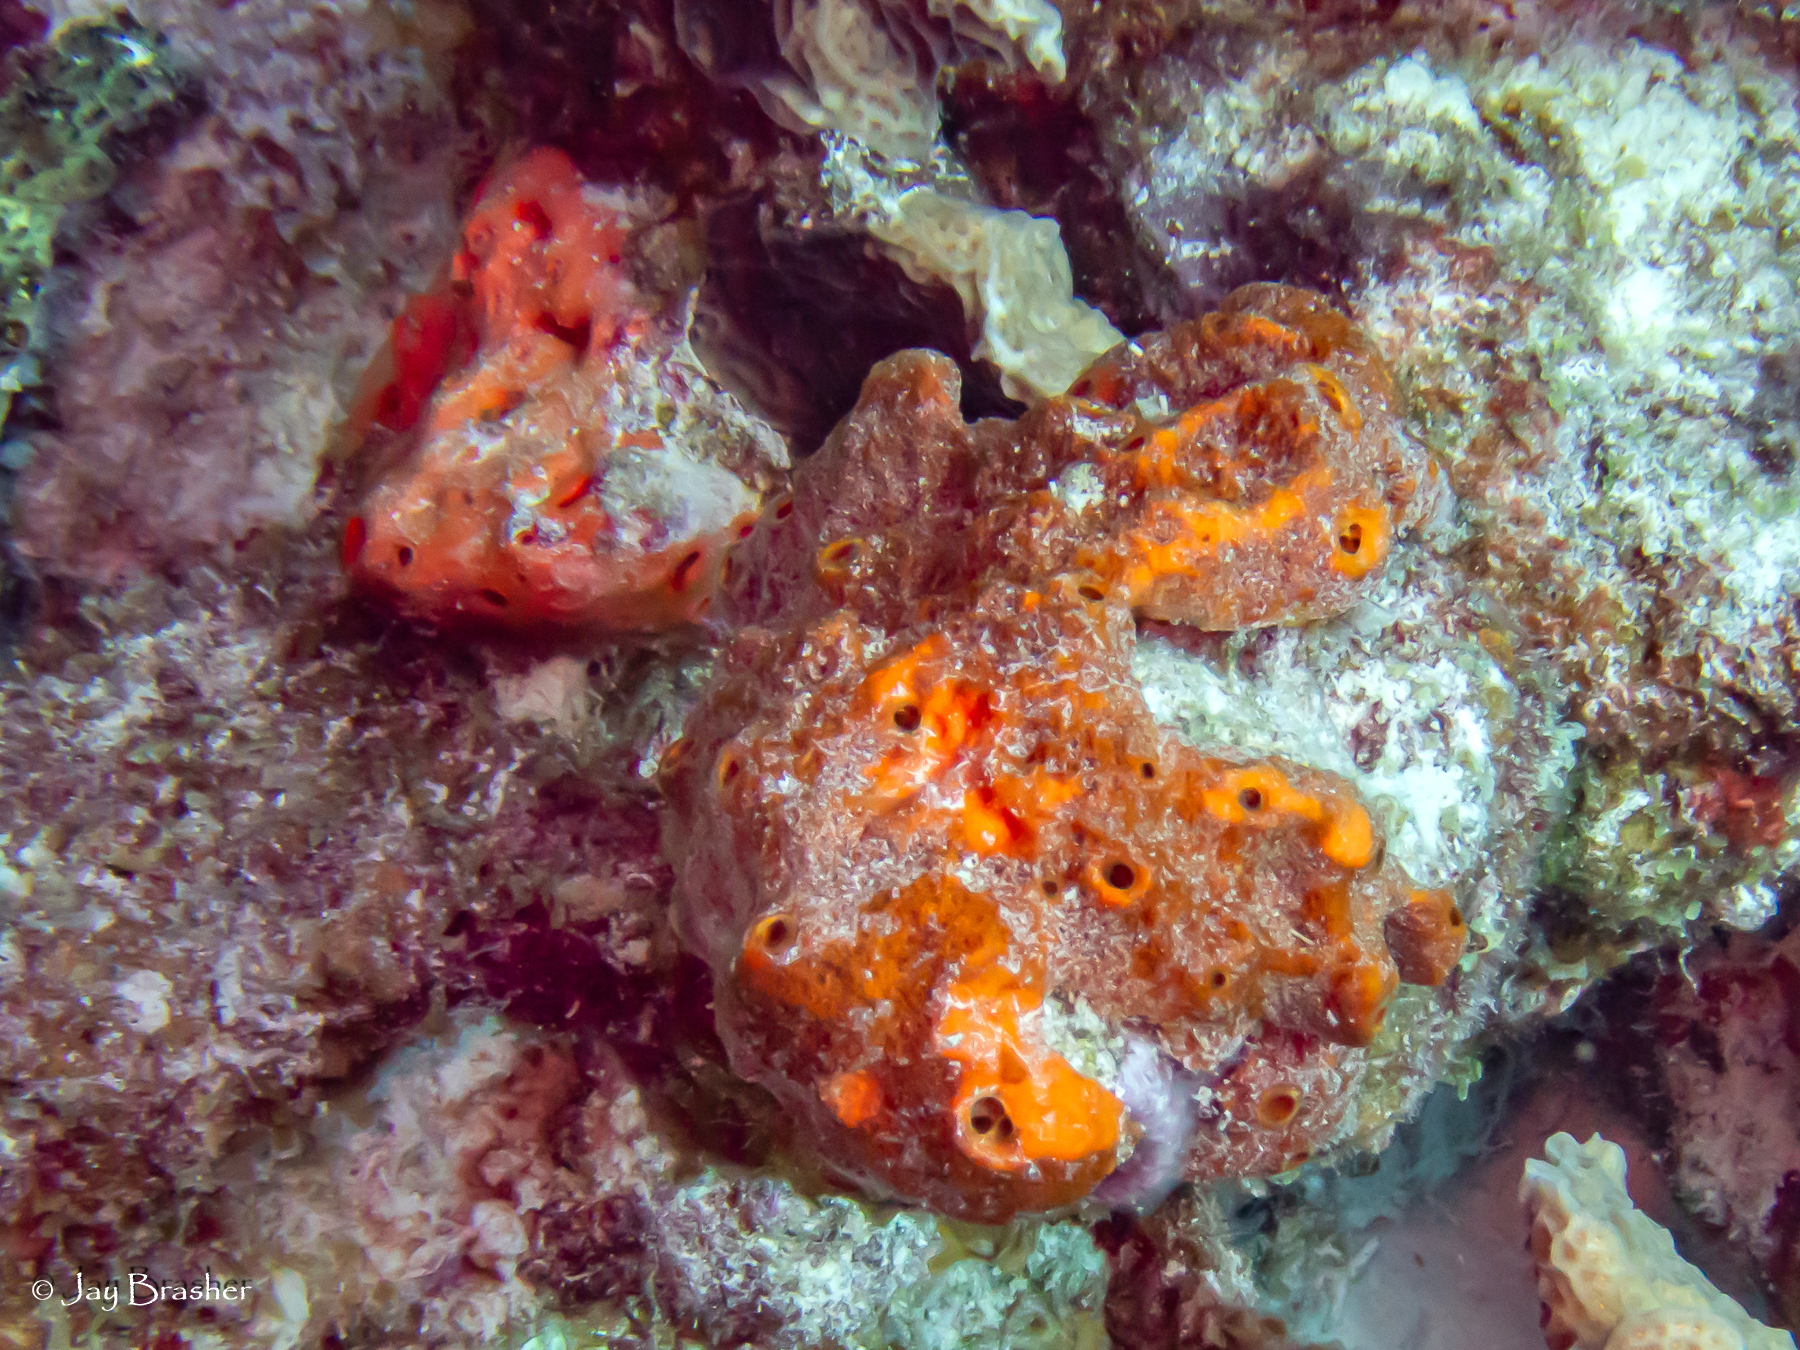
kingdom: Animalia
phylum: Porifera
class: Demospongiae
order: Agelasida
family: Agelasidae
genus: Agelas
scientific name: Agelas sventres
